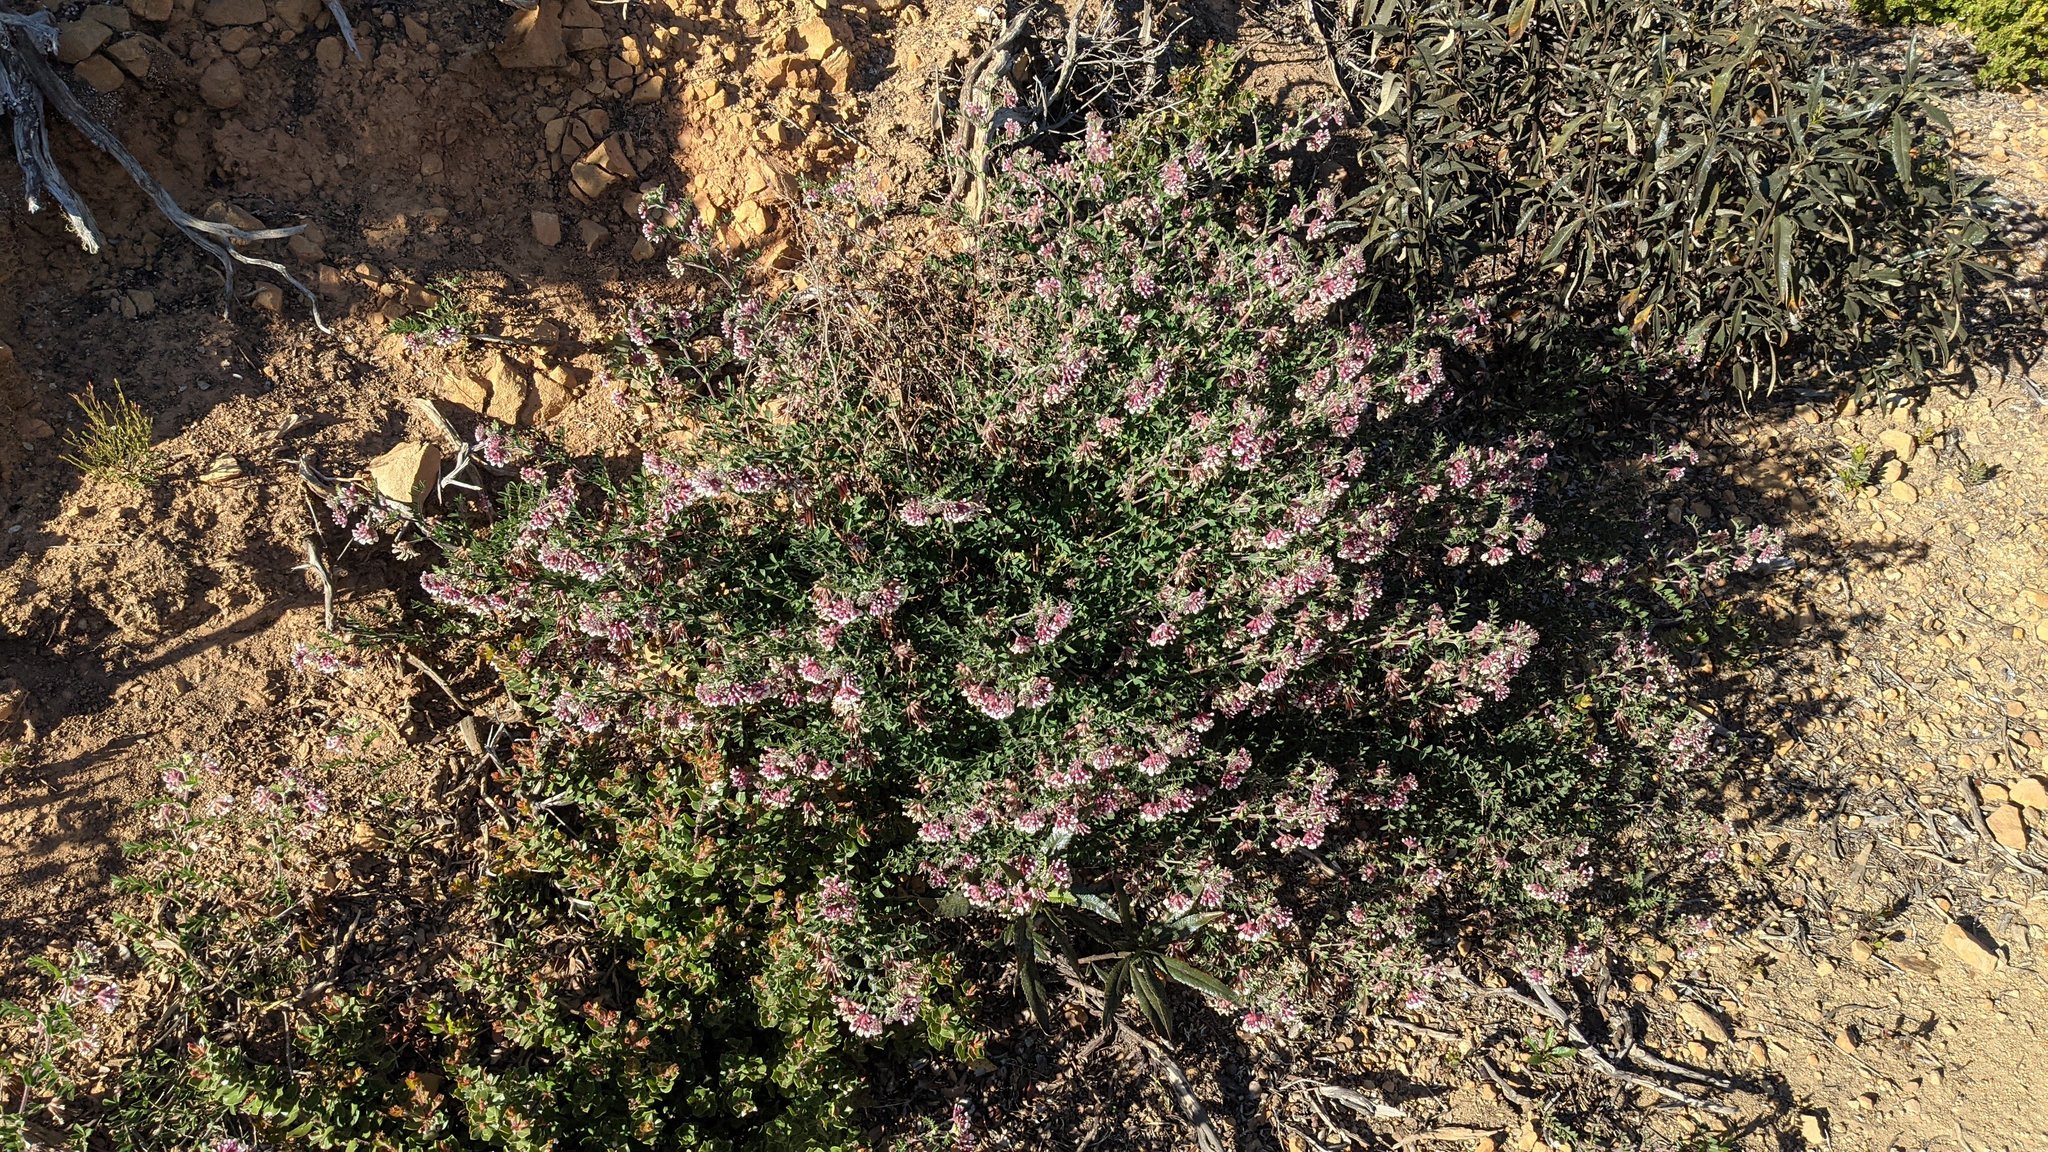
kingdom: Plantae
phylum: Tracheophyta
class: Magnoliopsida
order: Fabales
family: Fabaceae
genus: Hosackia
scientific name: Hosackia stipularis
